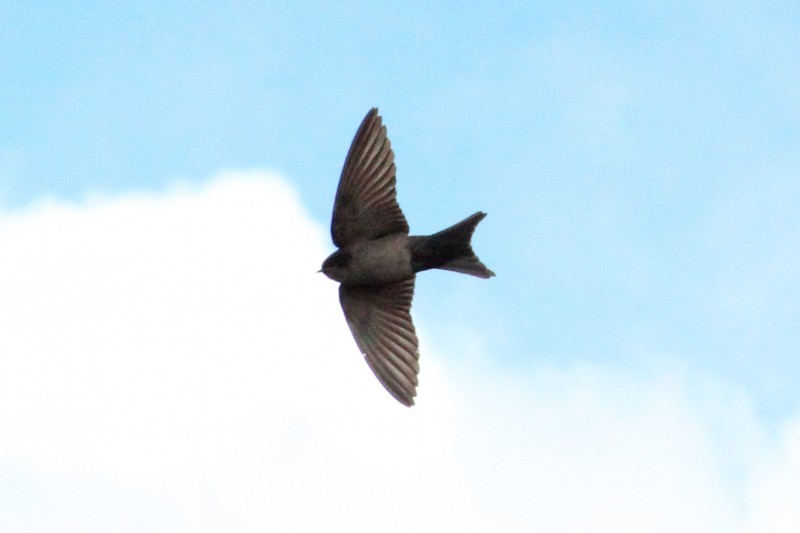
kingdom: Animalia
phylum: Chordata
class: Aves
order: Passeriformes
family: Hirundinidae
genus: Notiochelidon
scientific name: Notiochelidon murina
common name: Brown-bellied swallow
